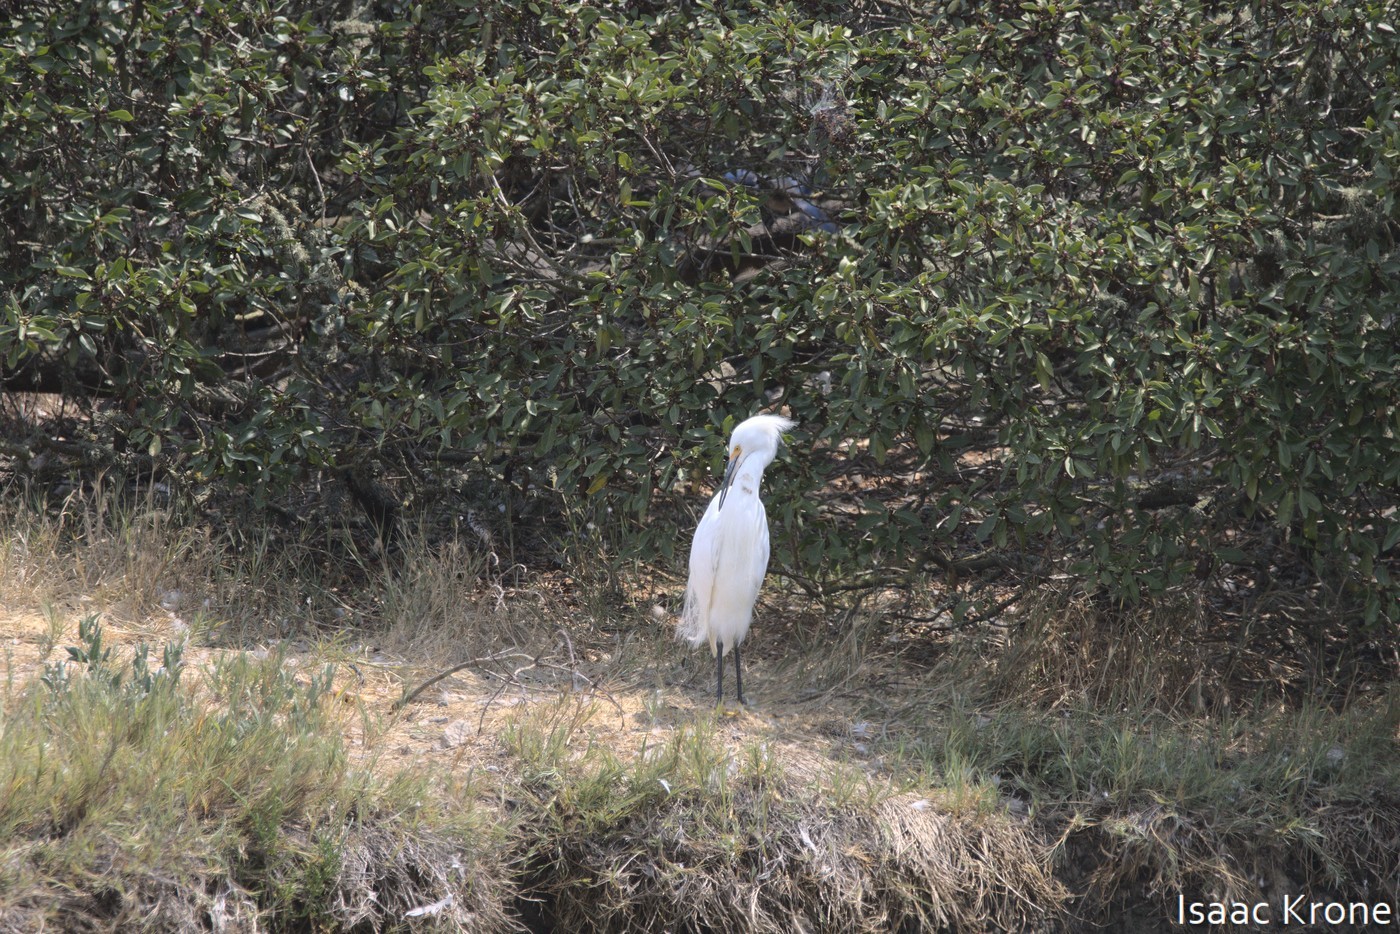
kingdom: Animalia
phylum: Chordata
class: Aves
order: Pelecaniformes
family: Ardeidae
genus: Egretta
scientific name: Egretta thula
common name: Snowy egret
